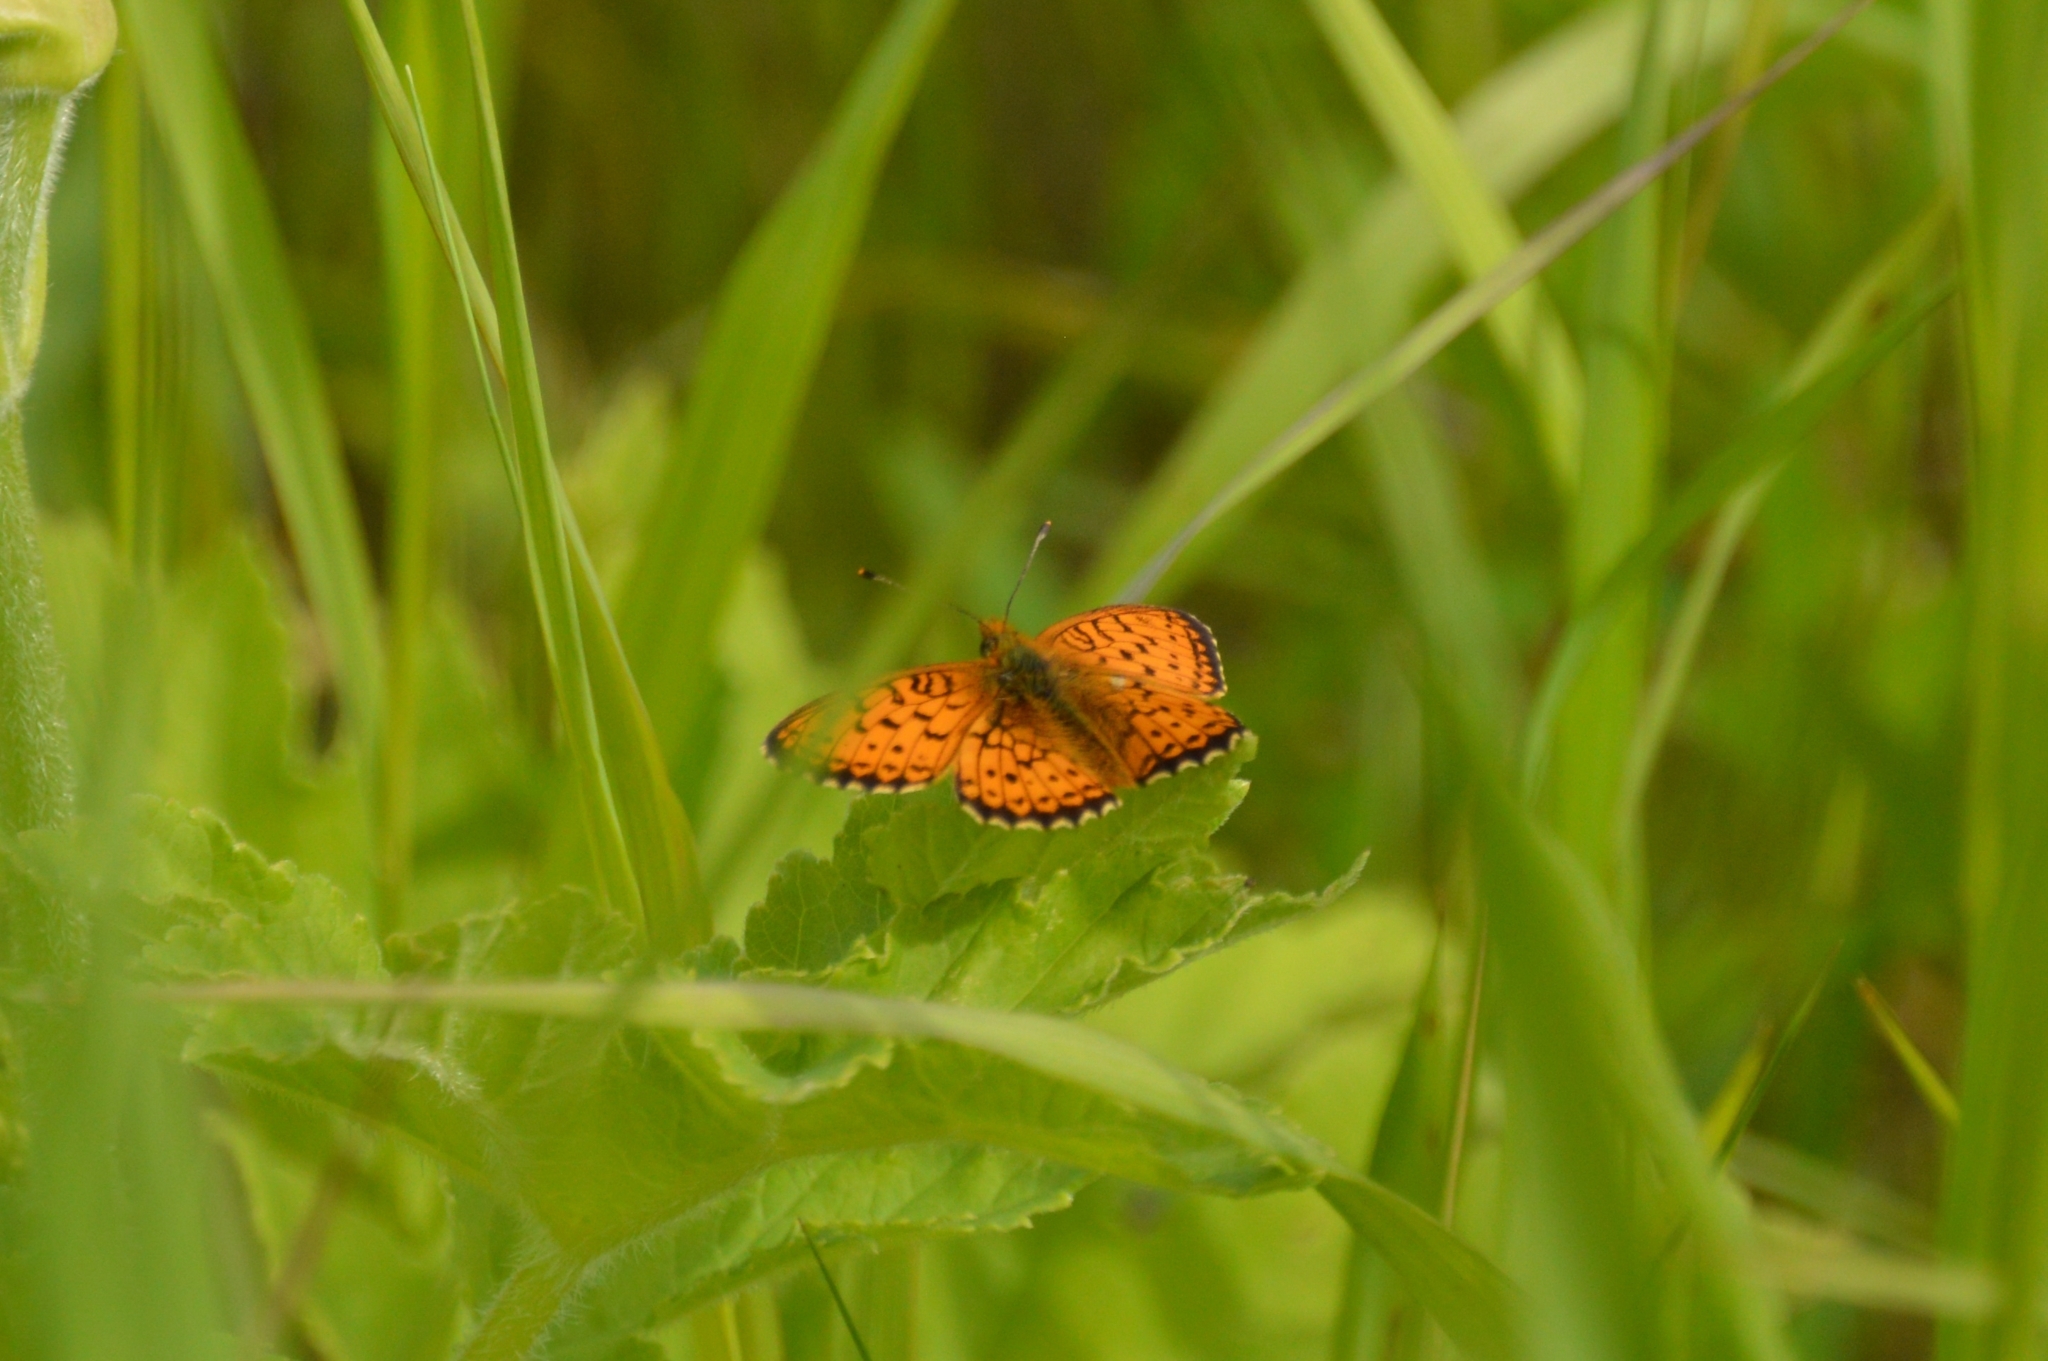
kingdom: Animalia
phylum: Arthropoda
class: Insecta
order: Lepidoptera
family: Nymphalidae
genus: Brenthis
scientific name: Brenthis ino
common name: Lesser marbled fritillary
